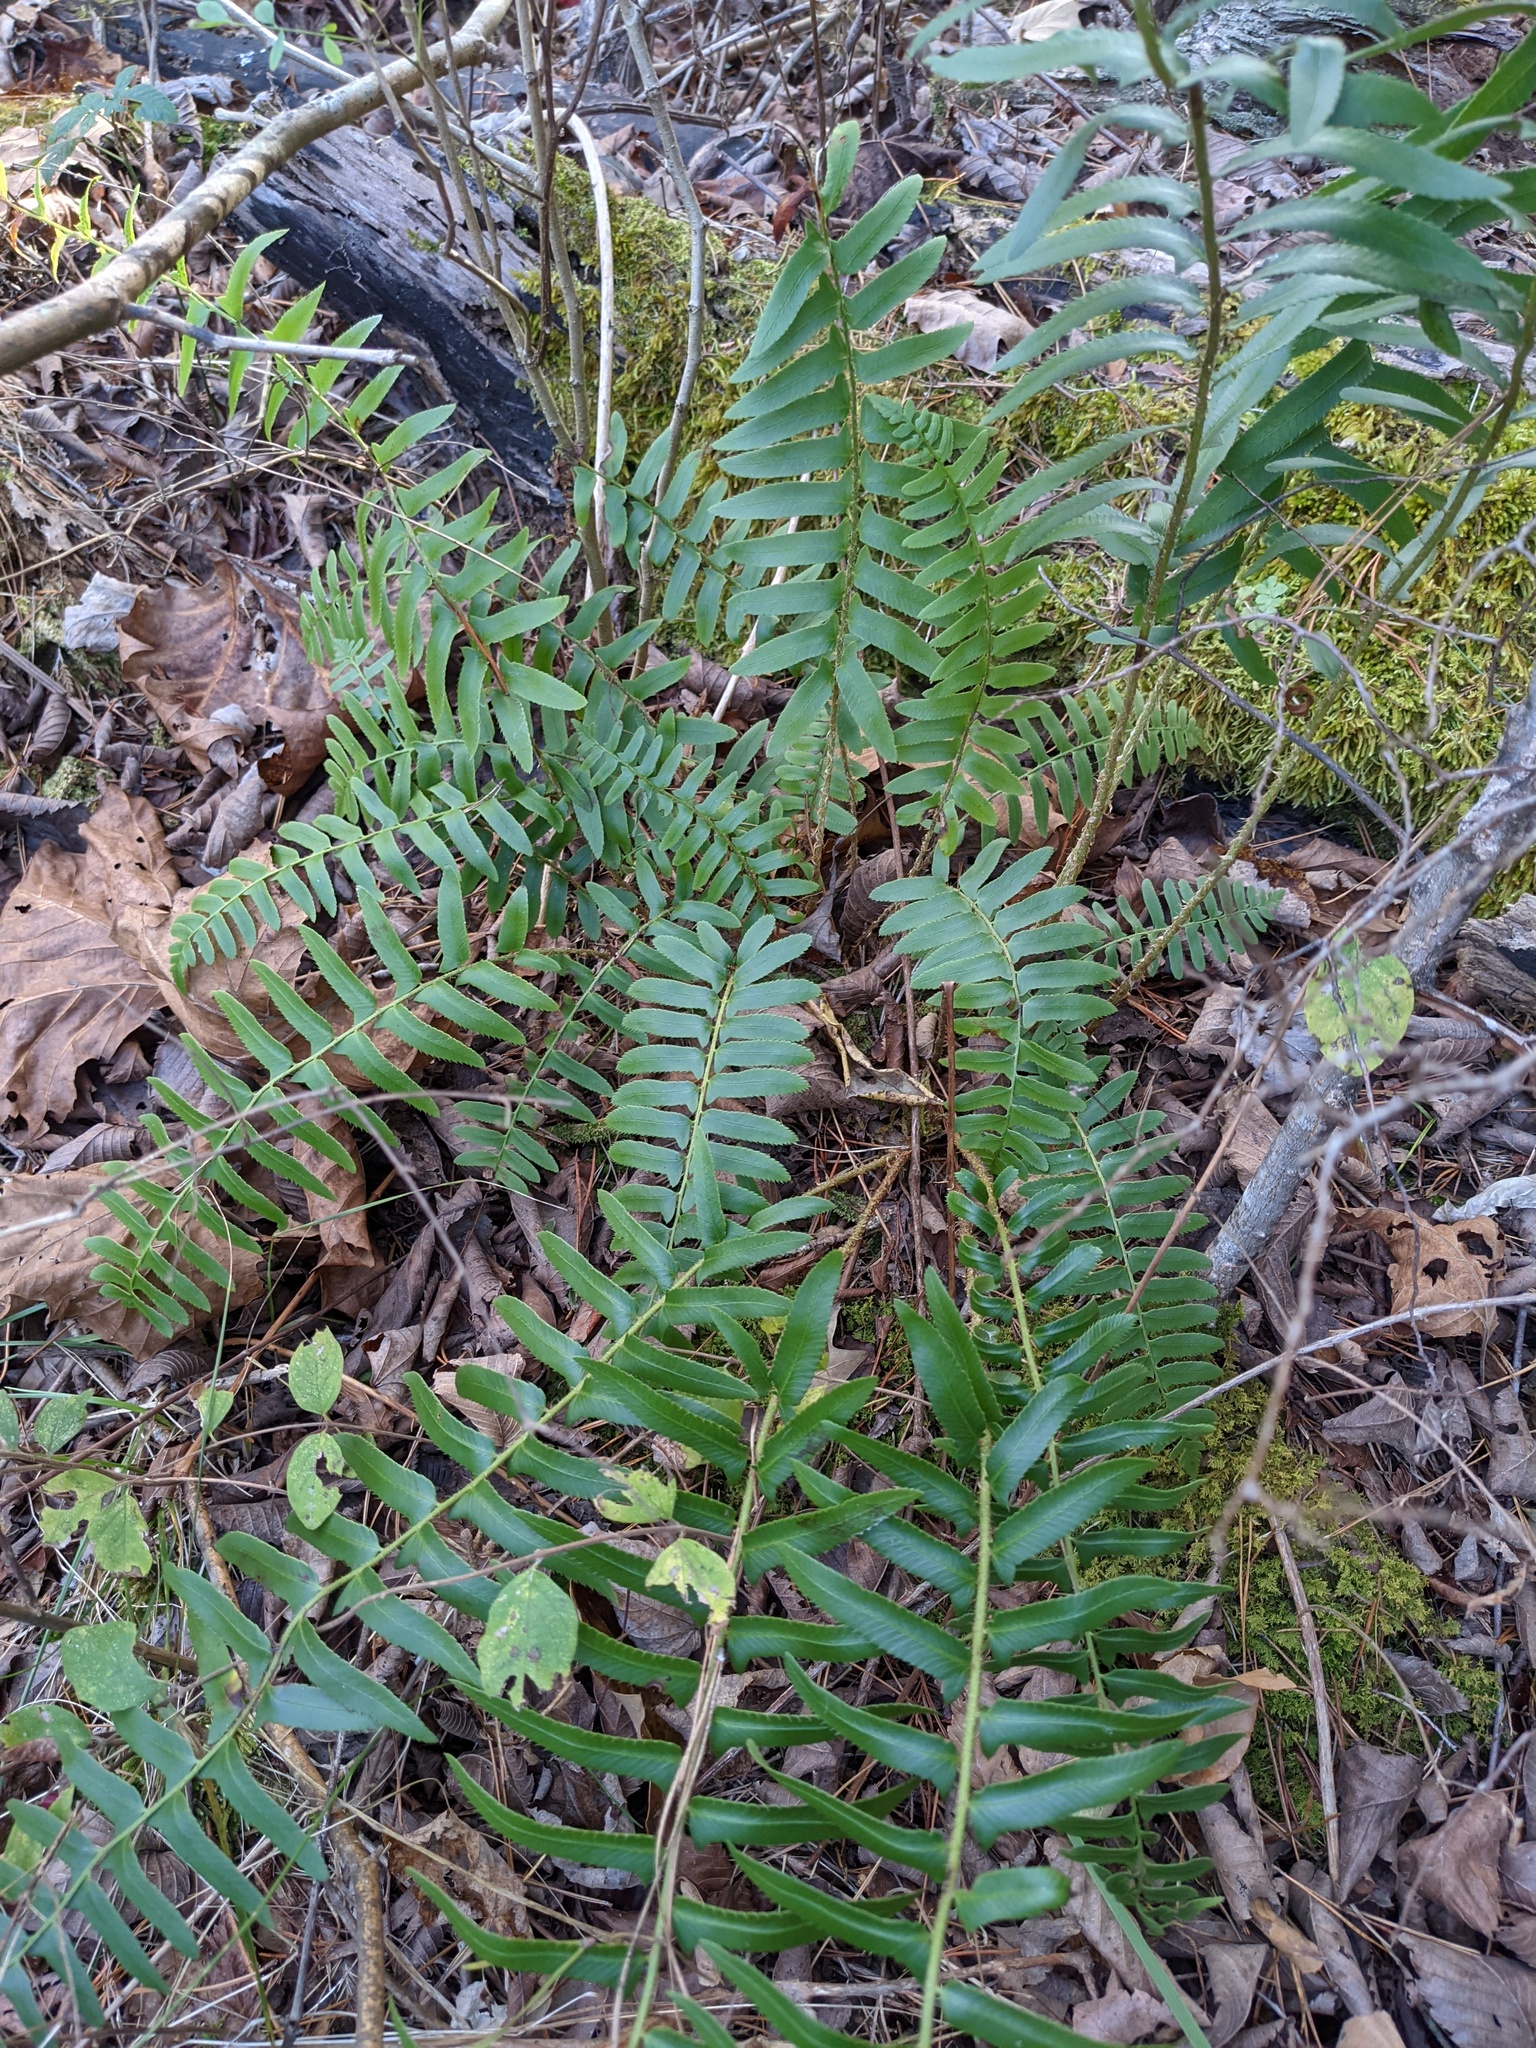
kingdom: Plantae
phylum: Tracheophyta
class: Polypodiopsida
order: Polypodiales
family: Dryopteridaceae
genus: Polystichum
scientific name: Polystichum acrostichoides
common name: Christmas fern
